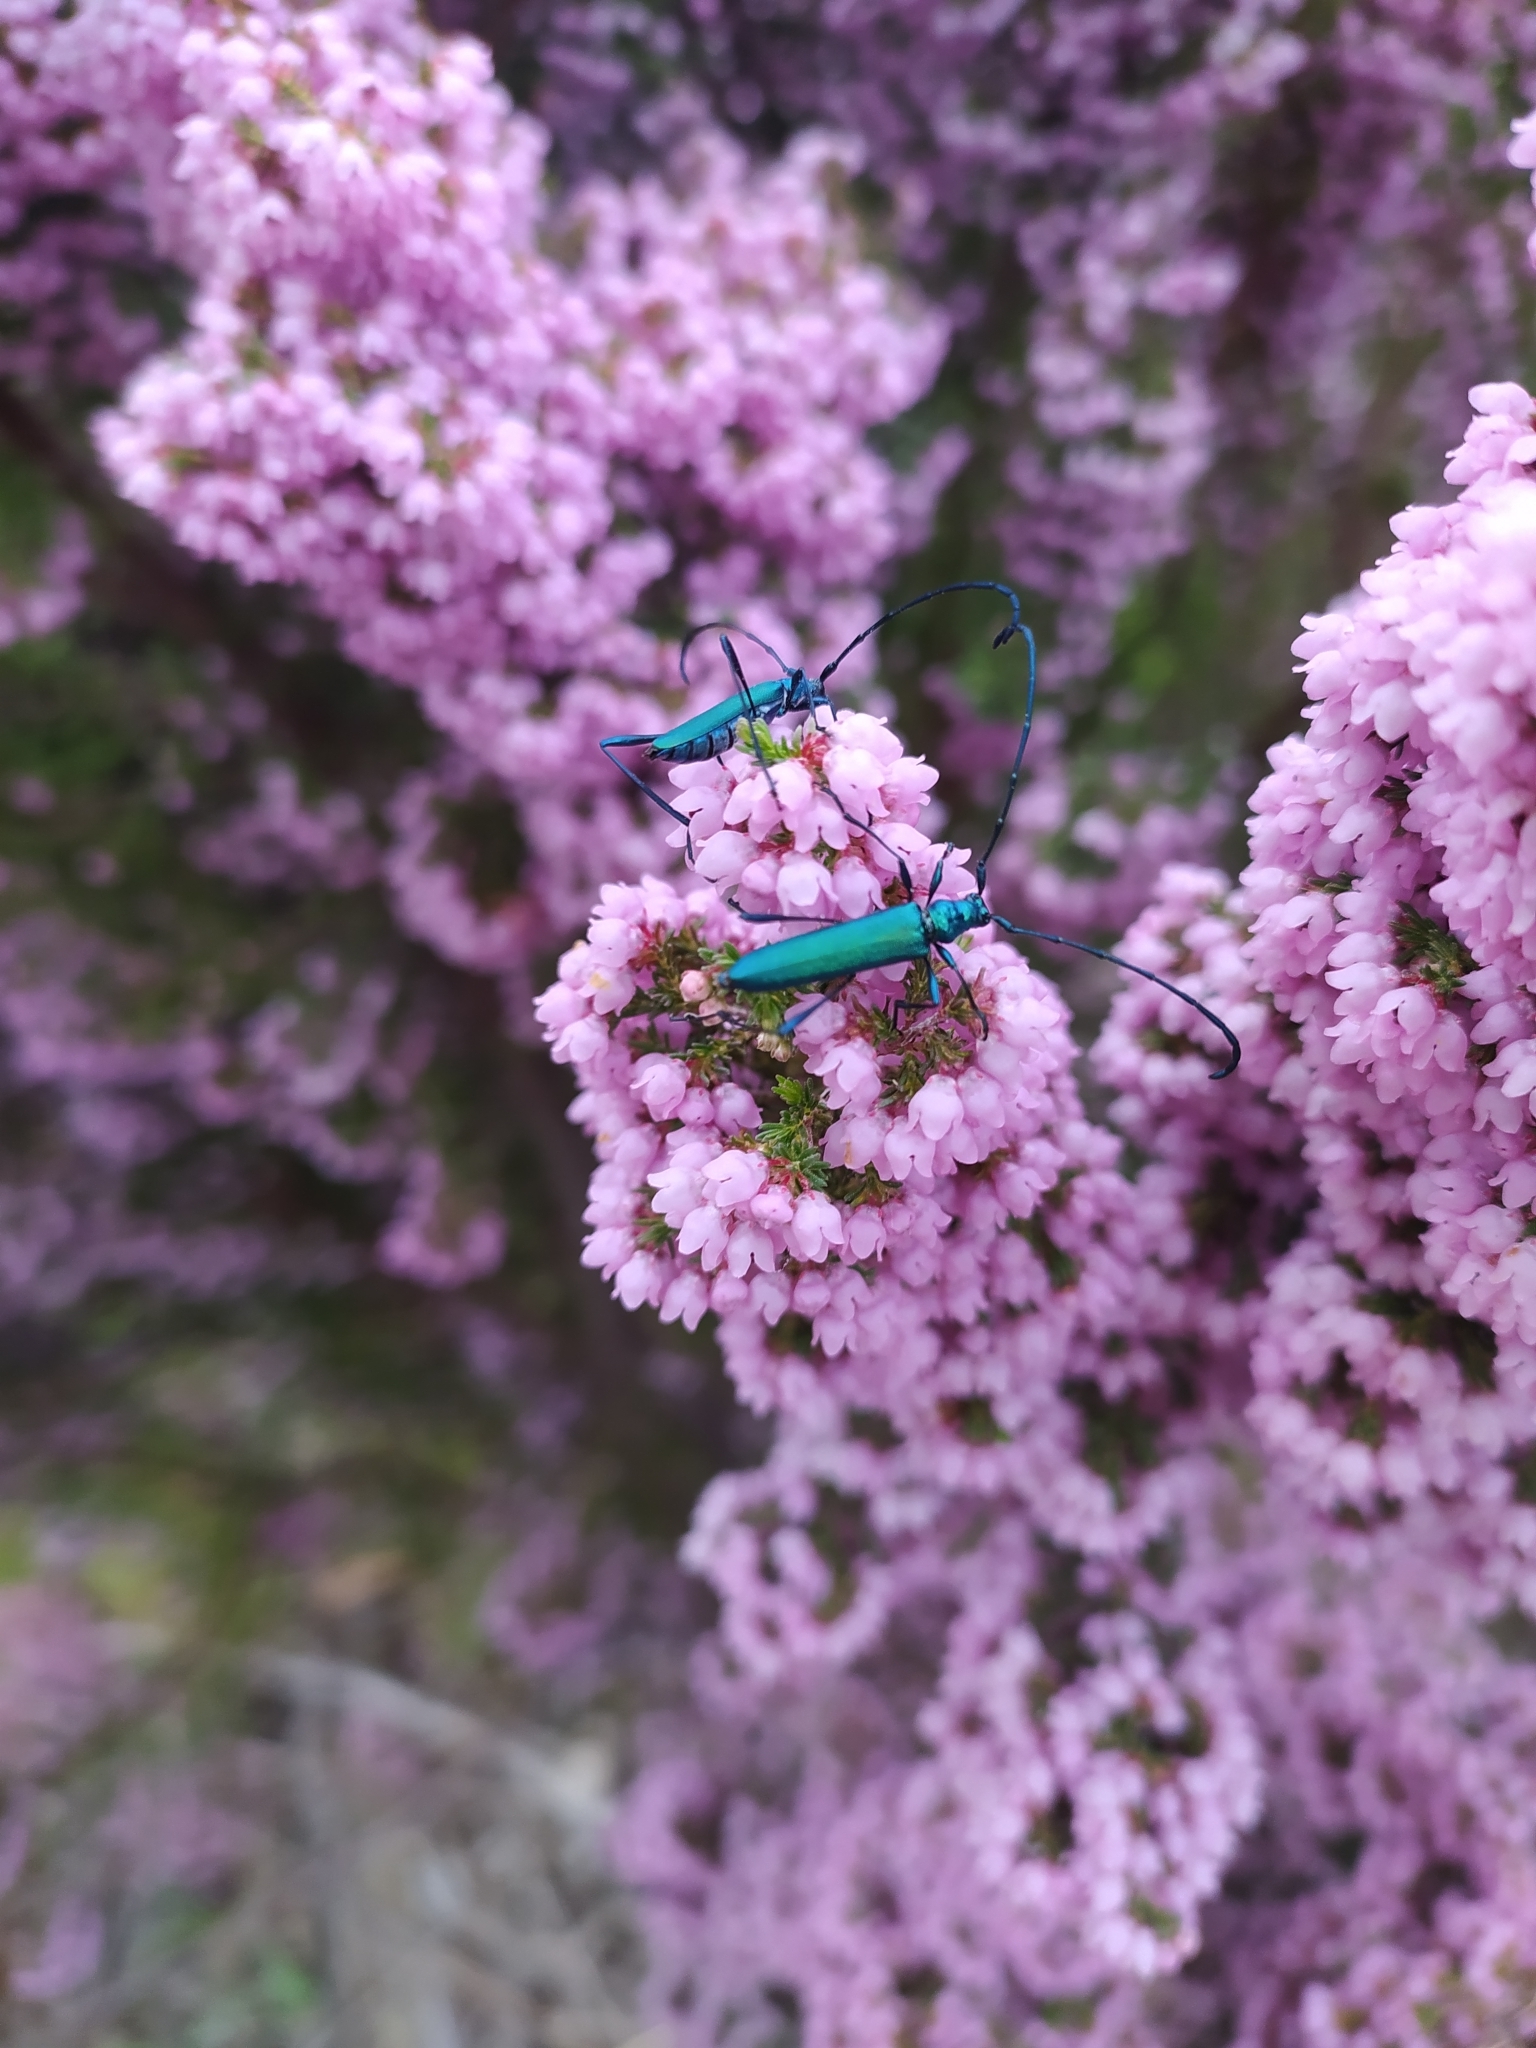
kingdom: Animalia
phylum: Arthropoda
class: Insecta
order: Coleoptera
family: Cerambycidae
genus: Promeces
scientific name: Promeces longipes
